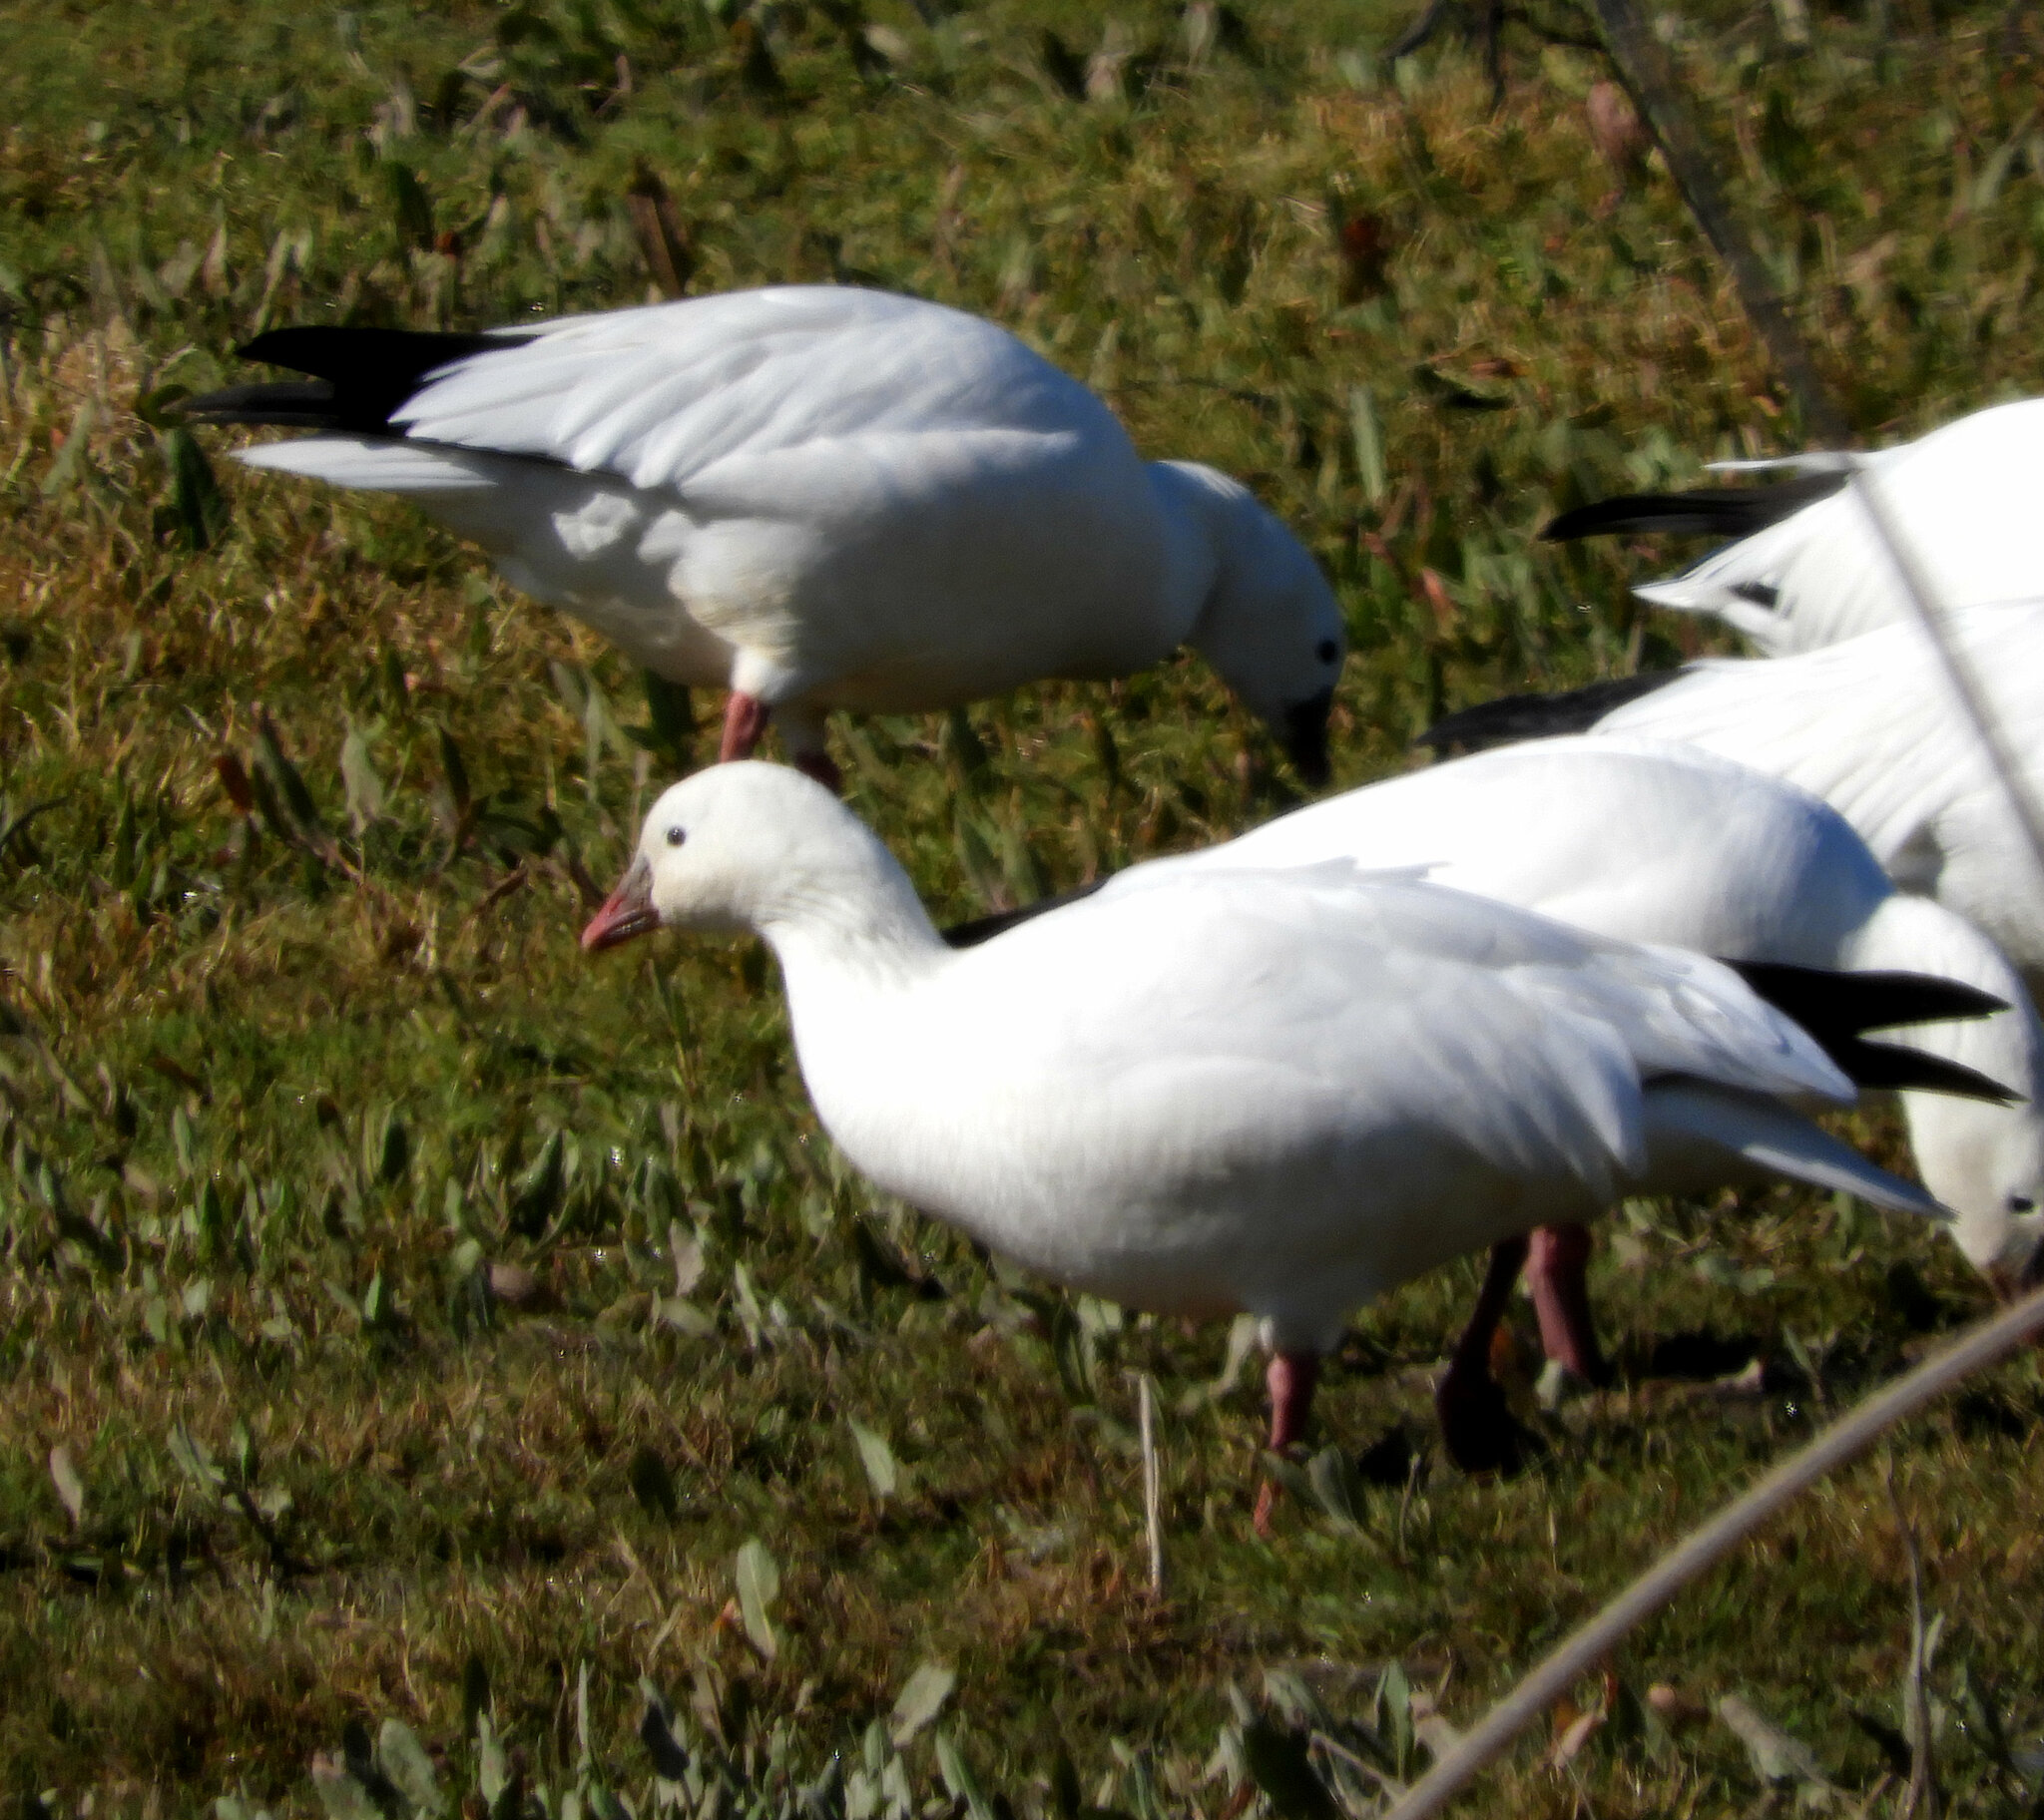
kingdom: Animalia
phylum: Chordata
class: Aves
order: Anseriformes
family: Anatidae
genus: Anser
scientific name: Anser rossii
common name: Ross's goose
